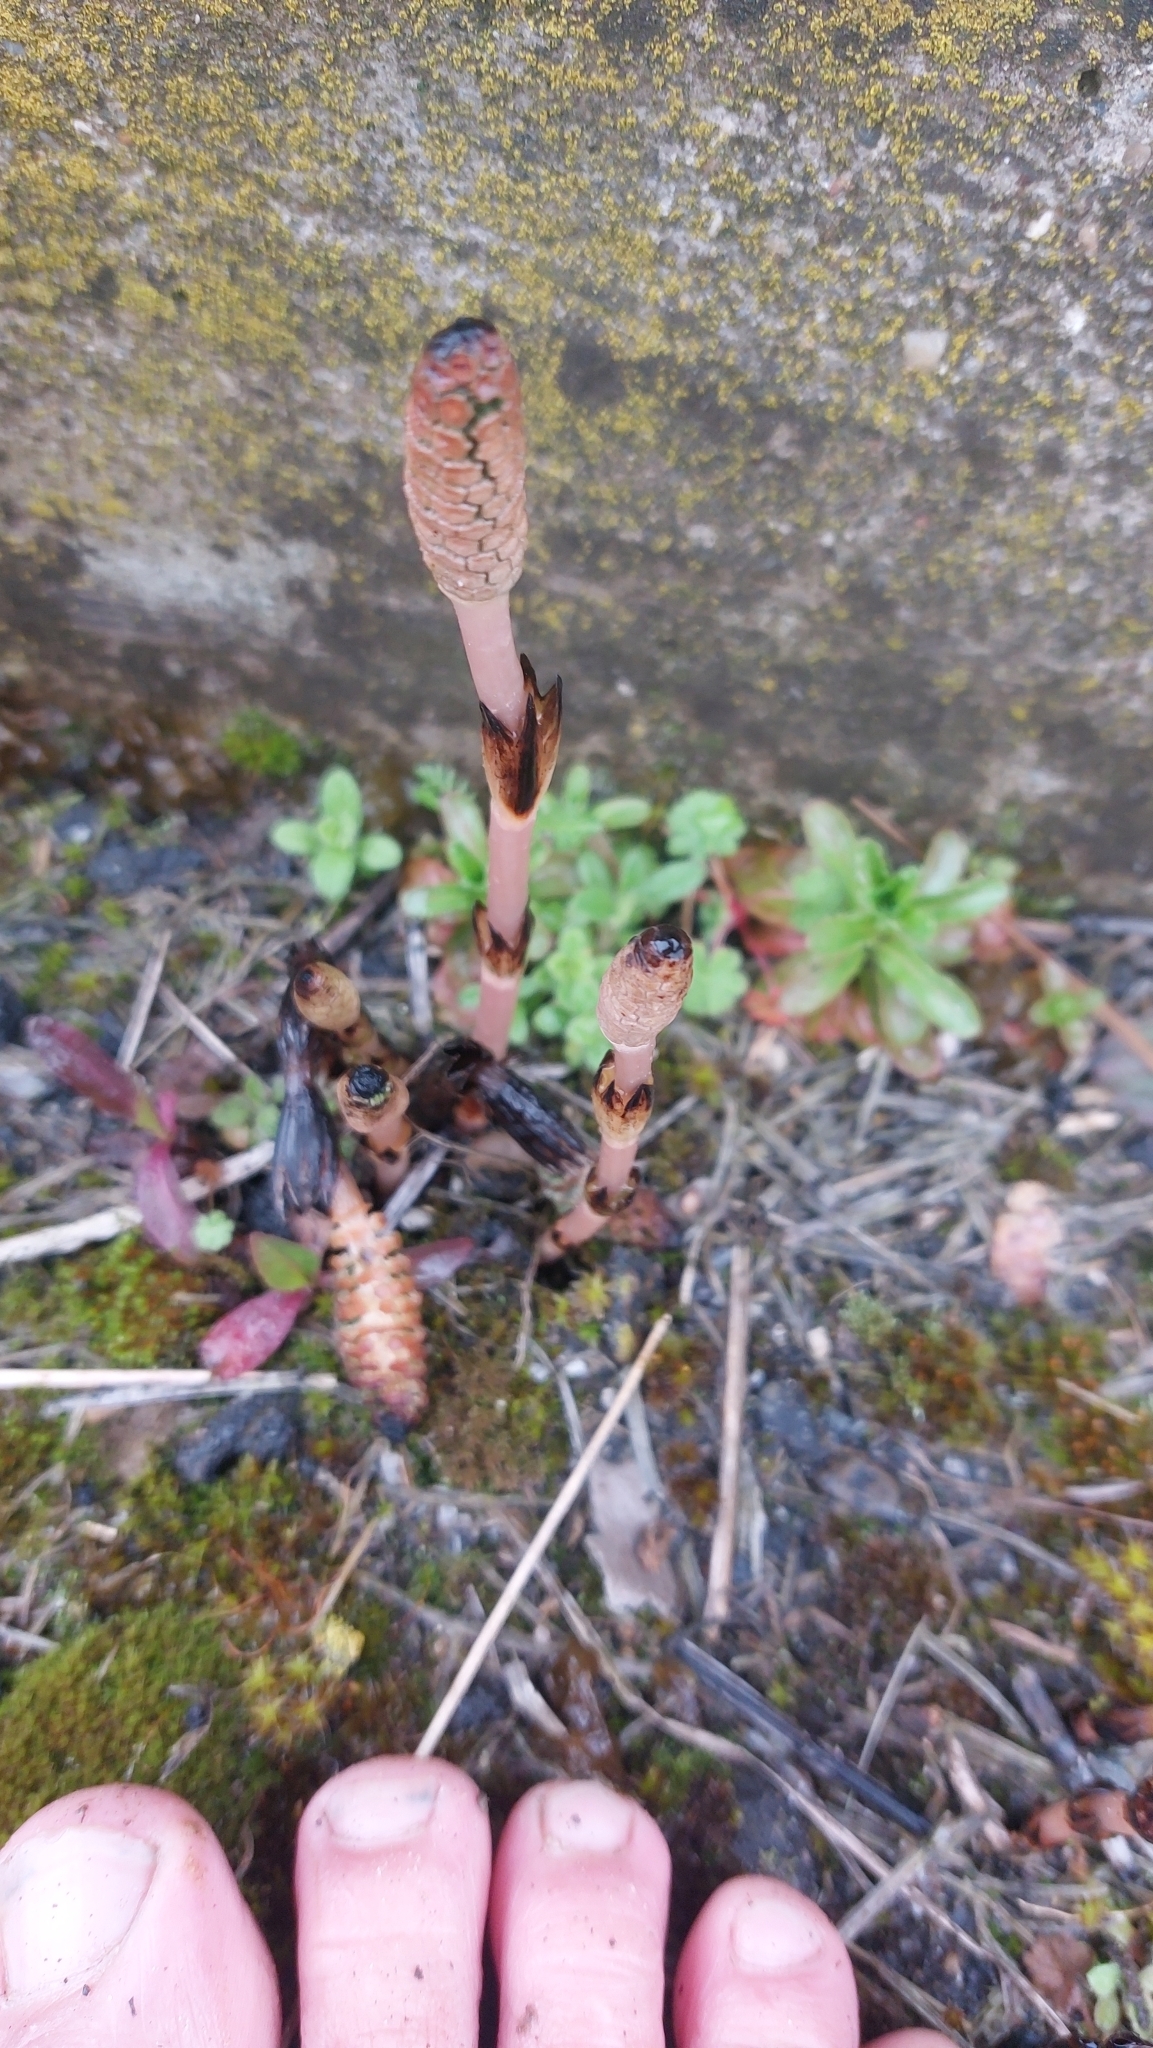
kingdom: Plantae
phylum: Tracheophyta
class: Polypodiopsida
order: Equisetales
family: Equisetaceae
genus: Equisetum
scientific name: Equisetum arvense
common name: Field horsetail
